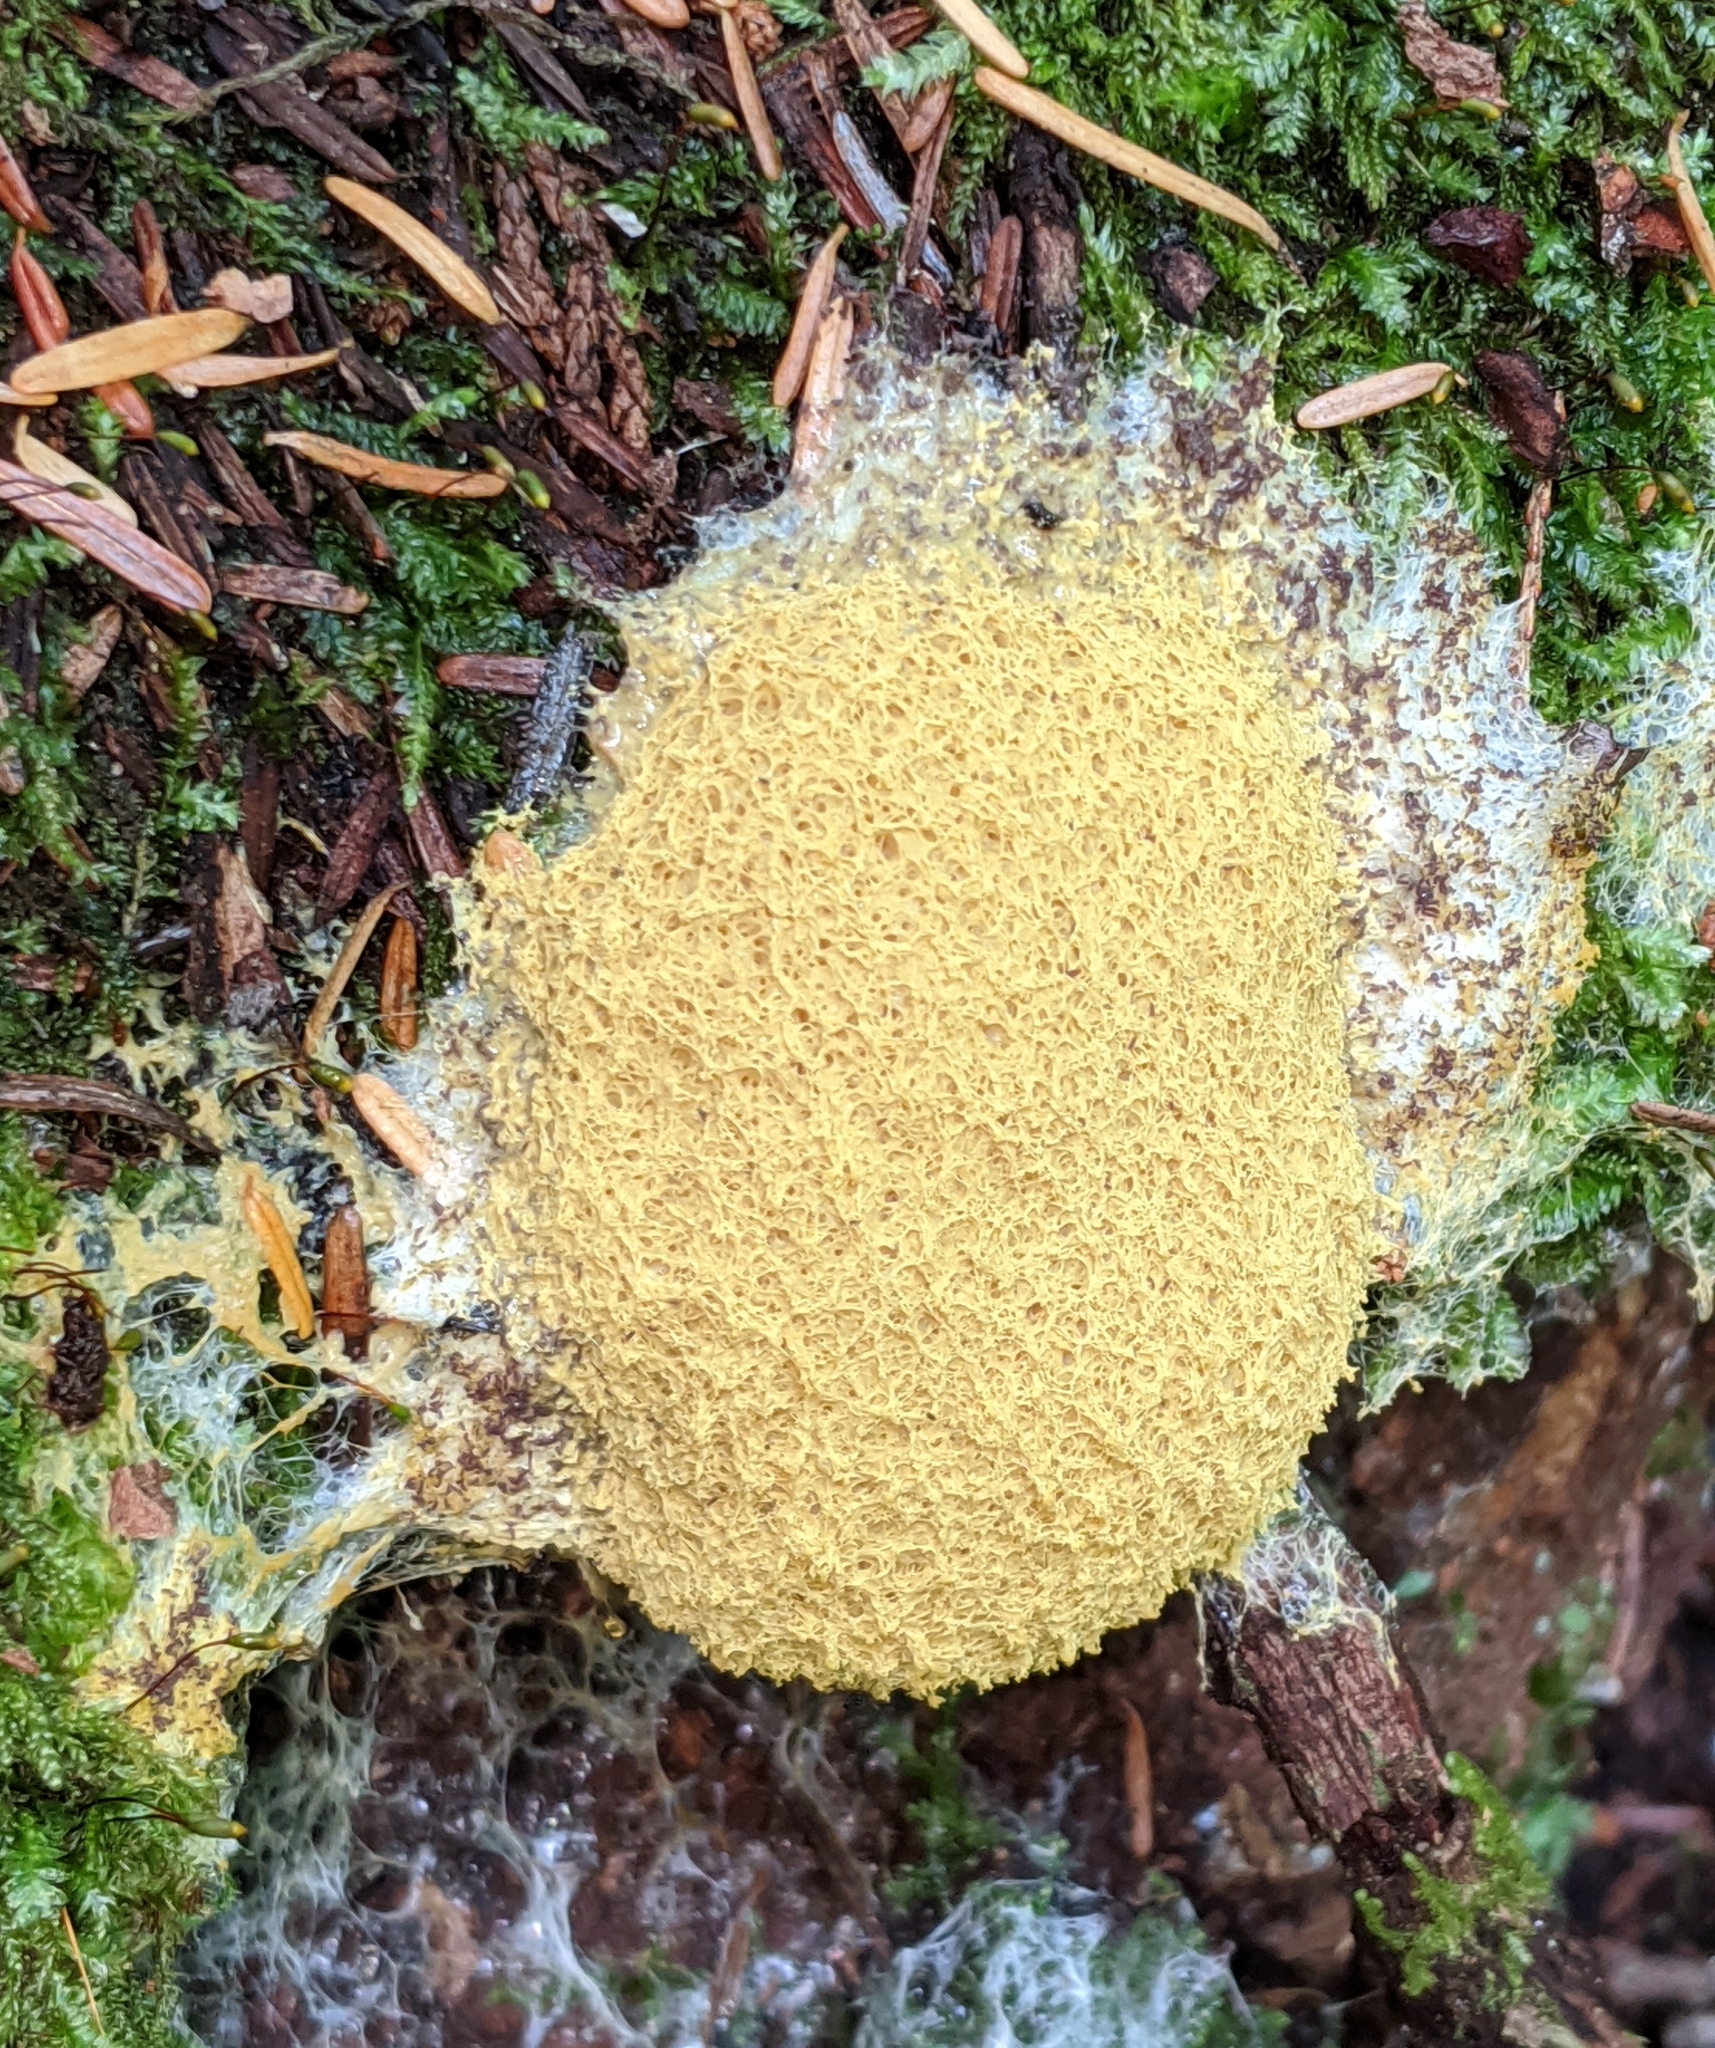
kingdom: Protozoa
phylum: Mycetozoa
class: Myxomycetes
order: Physarales
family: Physaraceae
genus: Fuligo
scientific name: Fuligo septica
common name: Dog vomit slime mold
